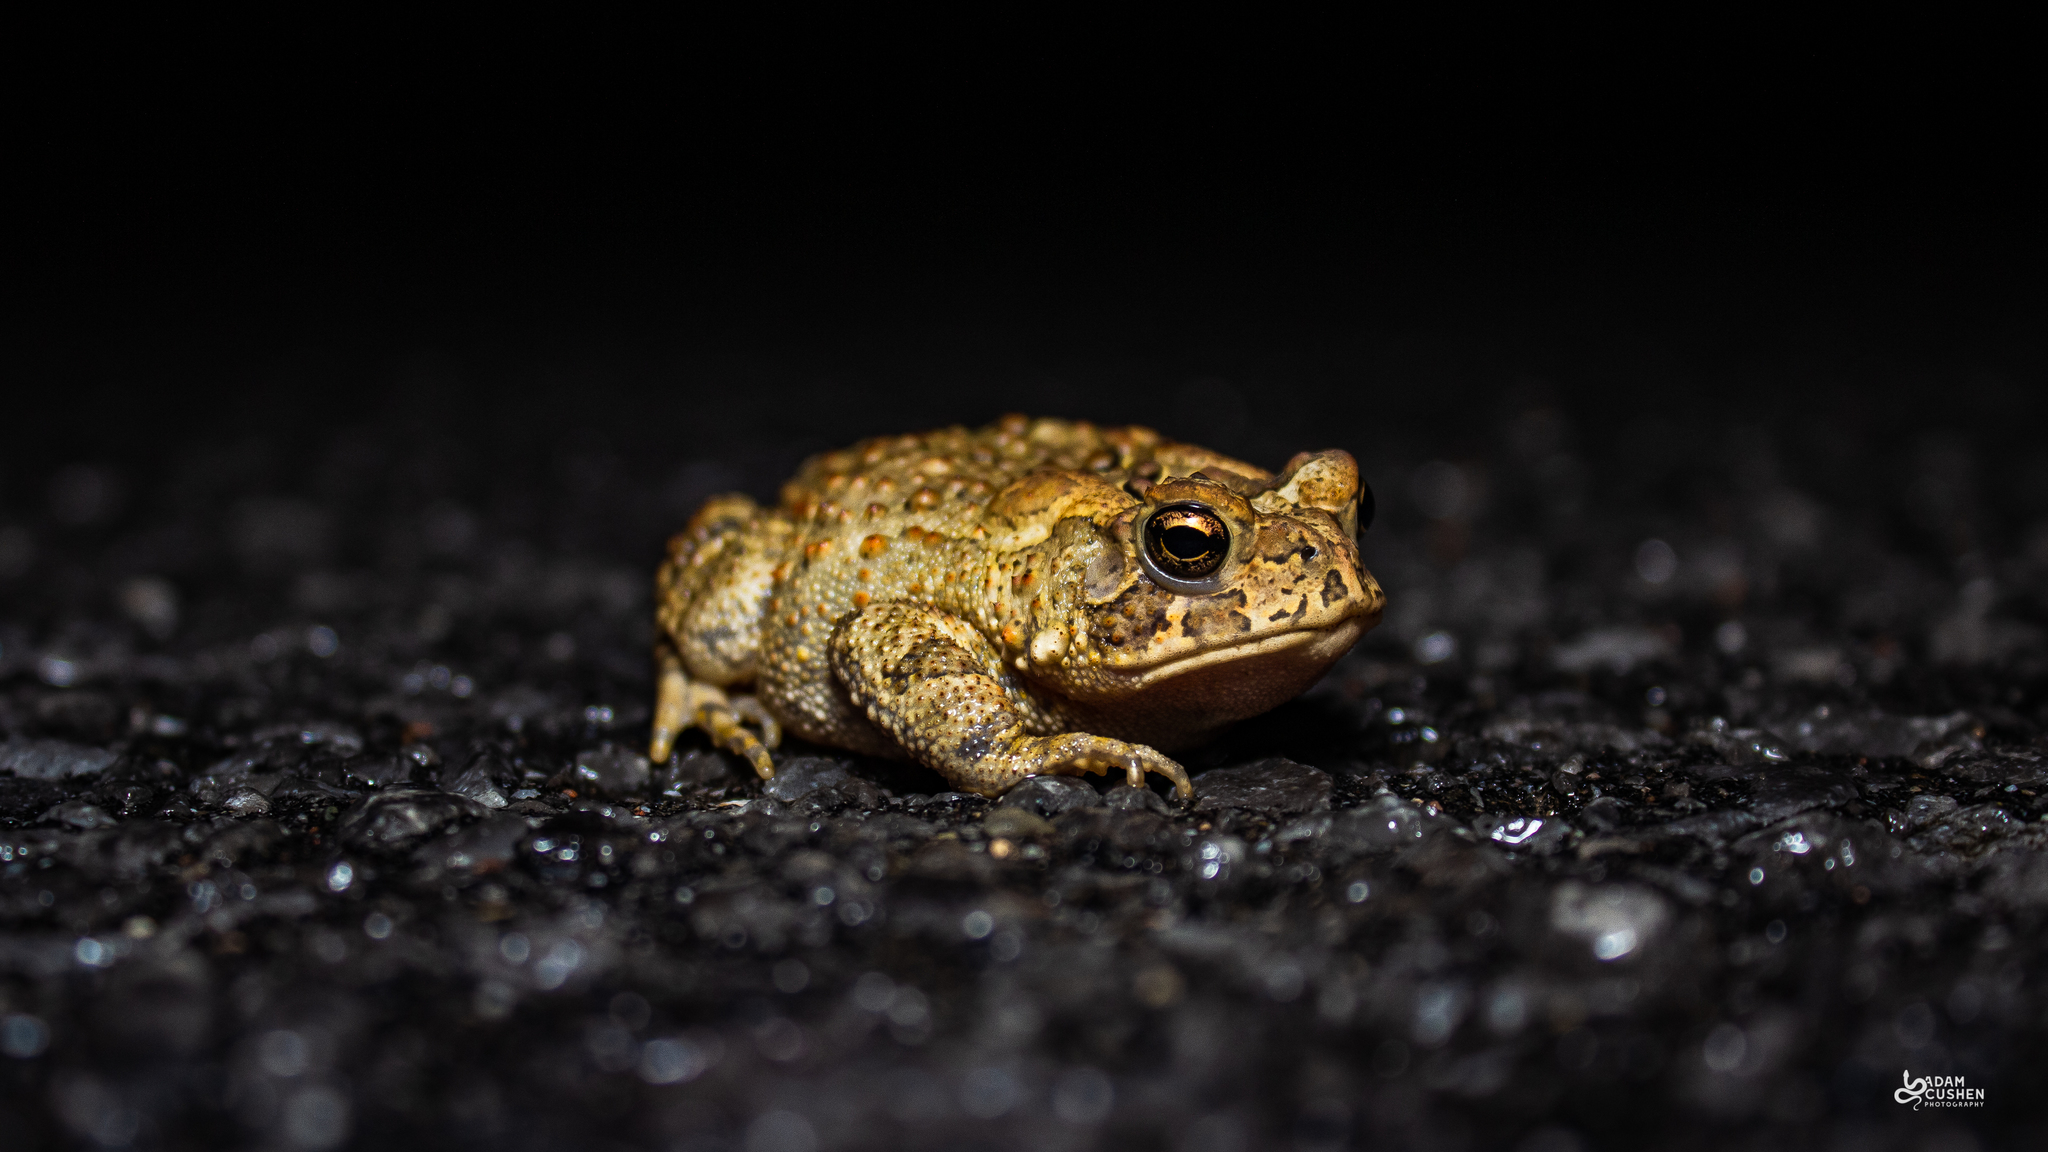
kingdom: Animalia
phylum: Chordata
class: Amphibia
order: Anura
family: Bufonidae
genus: Anaxyrus
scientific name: Anaxyrus americanus
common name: American toad
